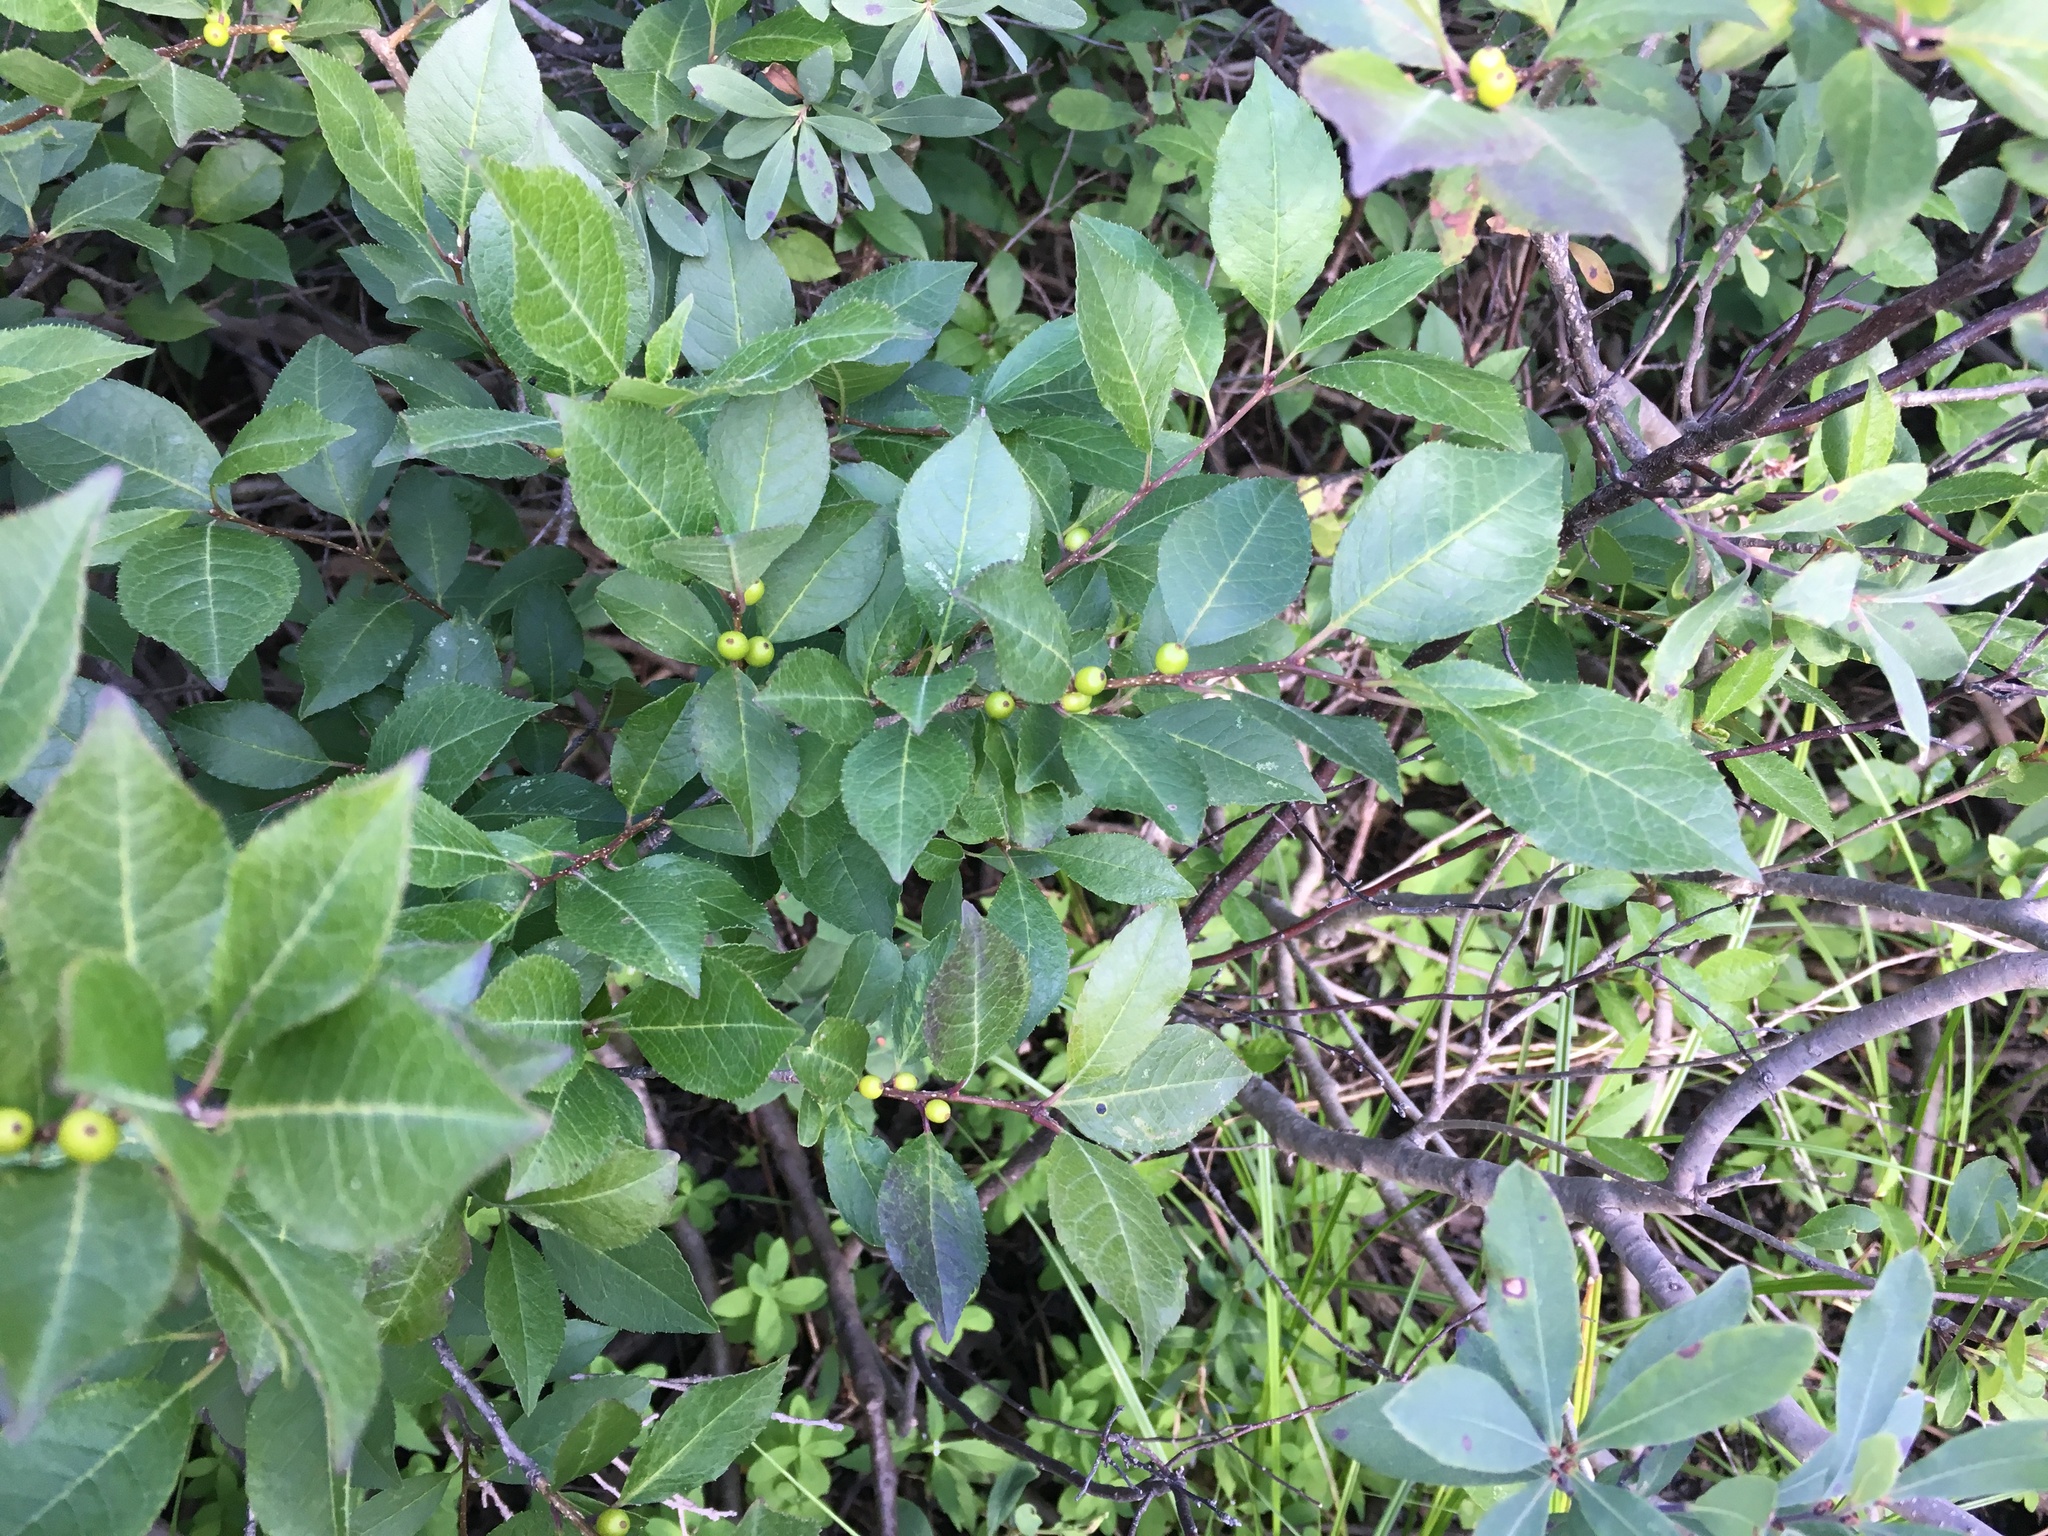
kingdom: Plantae
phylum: Tracheophyta
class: Magnoliopsida
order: Aquifoliales
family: Aquifoliaceae
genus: Ilex
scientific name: Ilex verticillata
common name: Virginia winterberry
